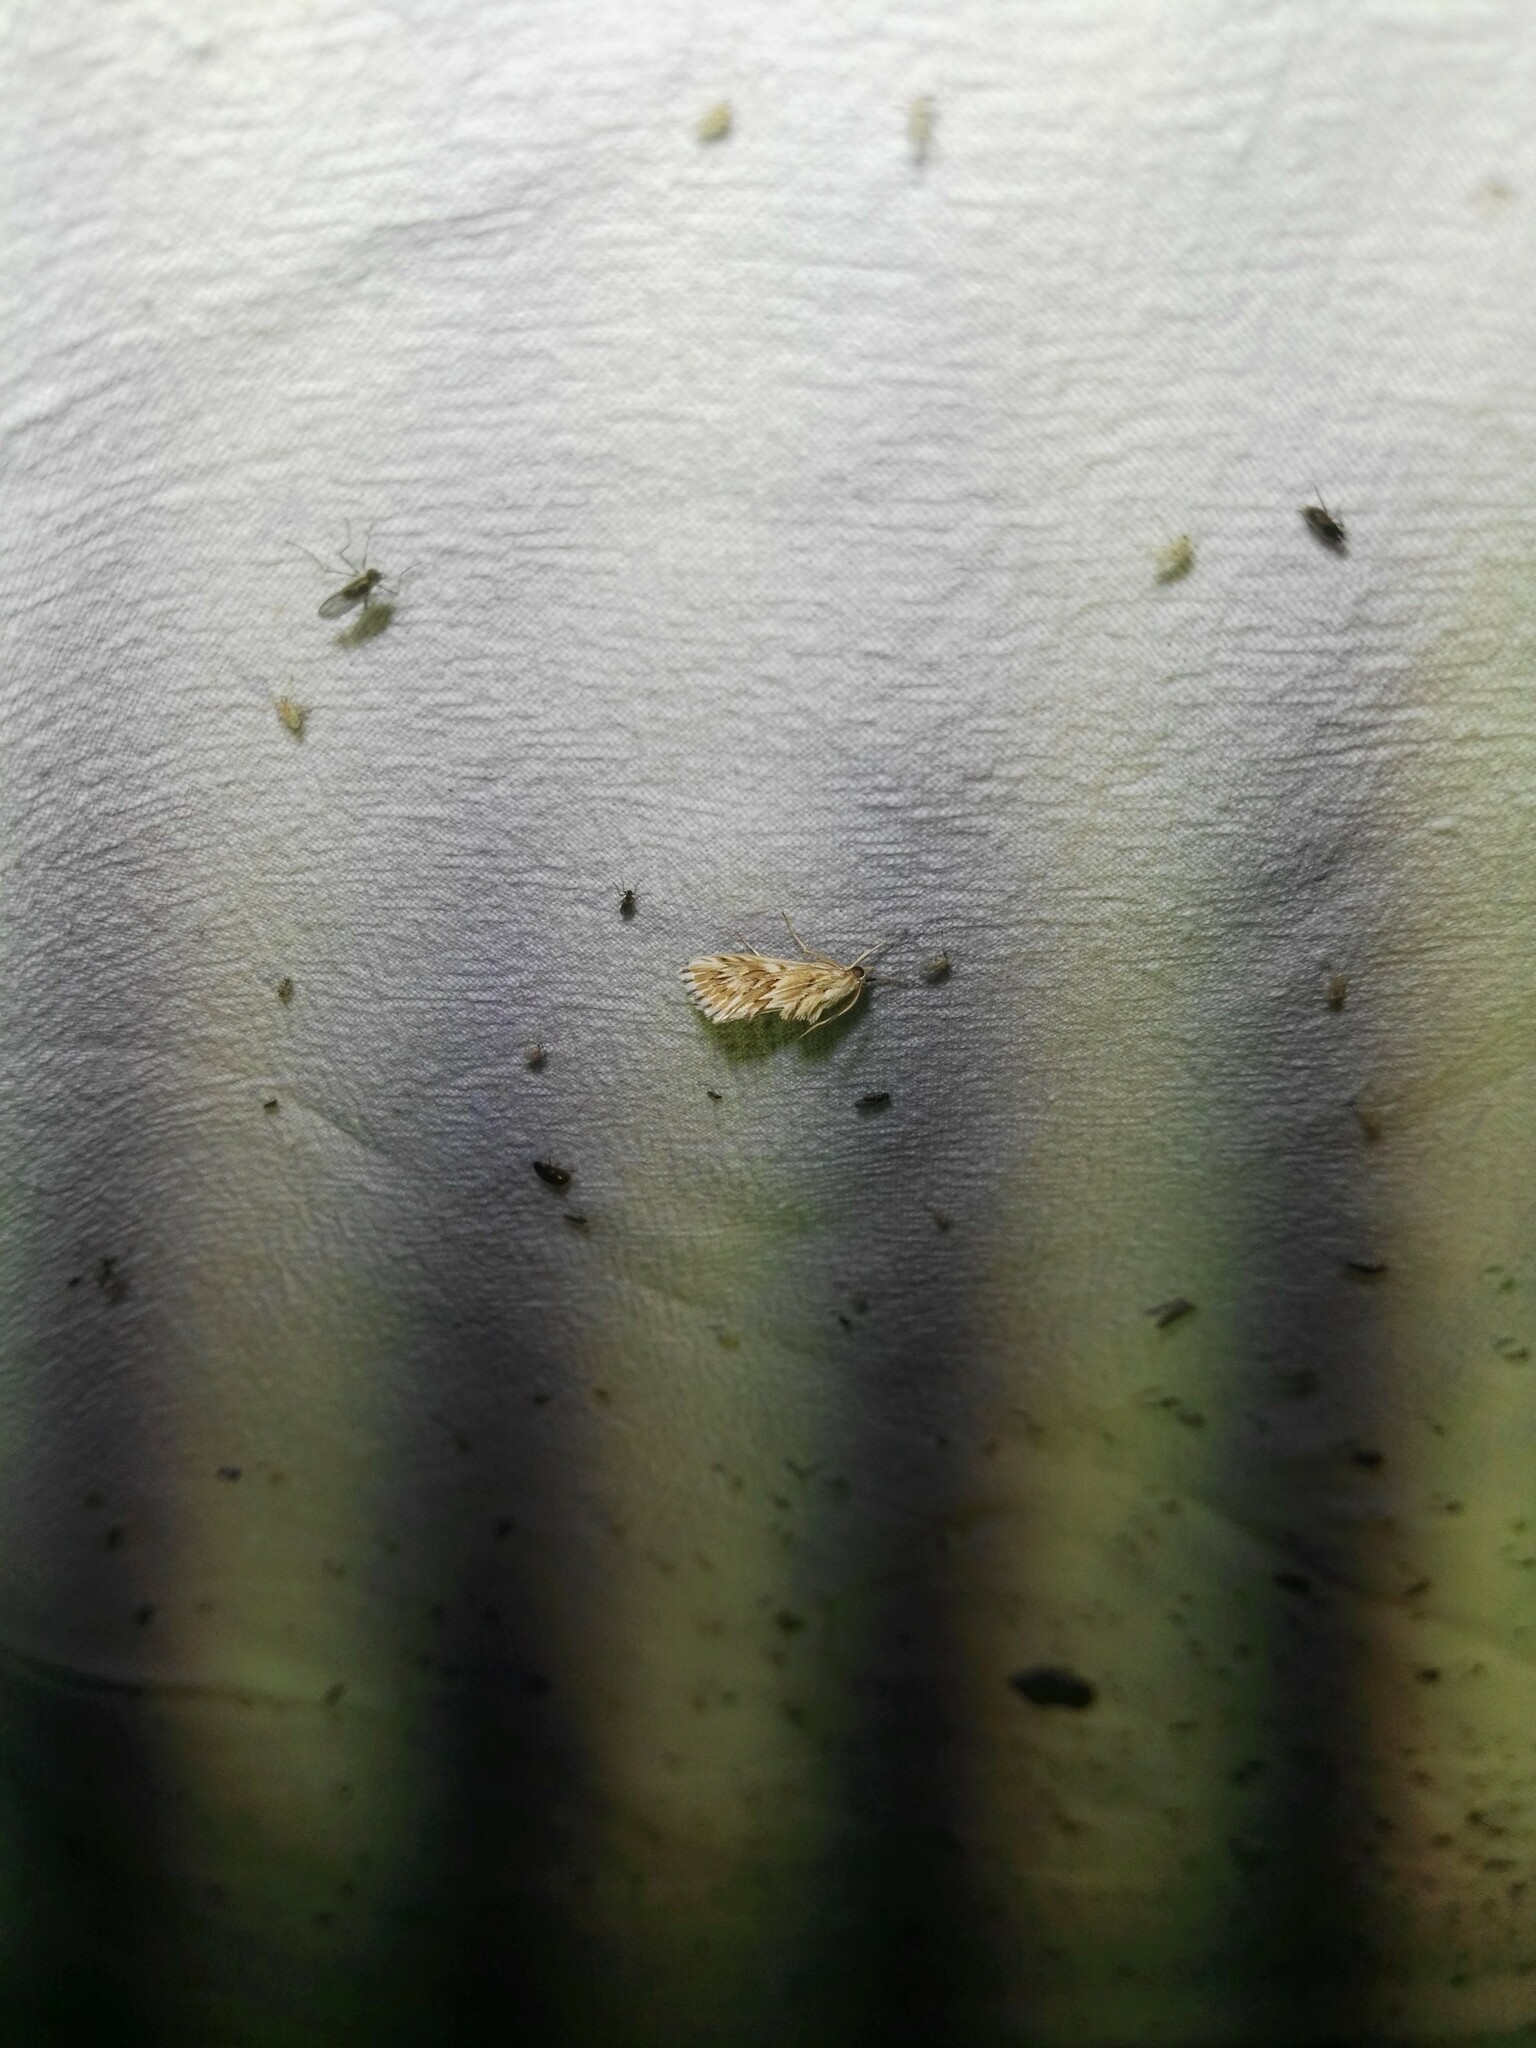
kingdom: Animalia
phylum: Arthropoda
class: Insecta
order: Lepidoptera
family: Crambidae
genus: Cynaeda
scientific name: Cynaeda dentalis
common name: Starry pearl
